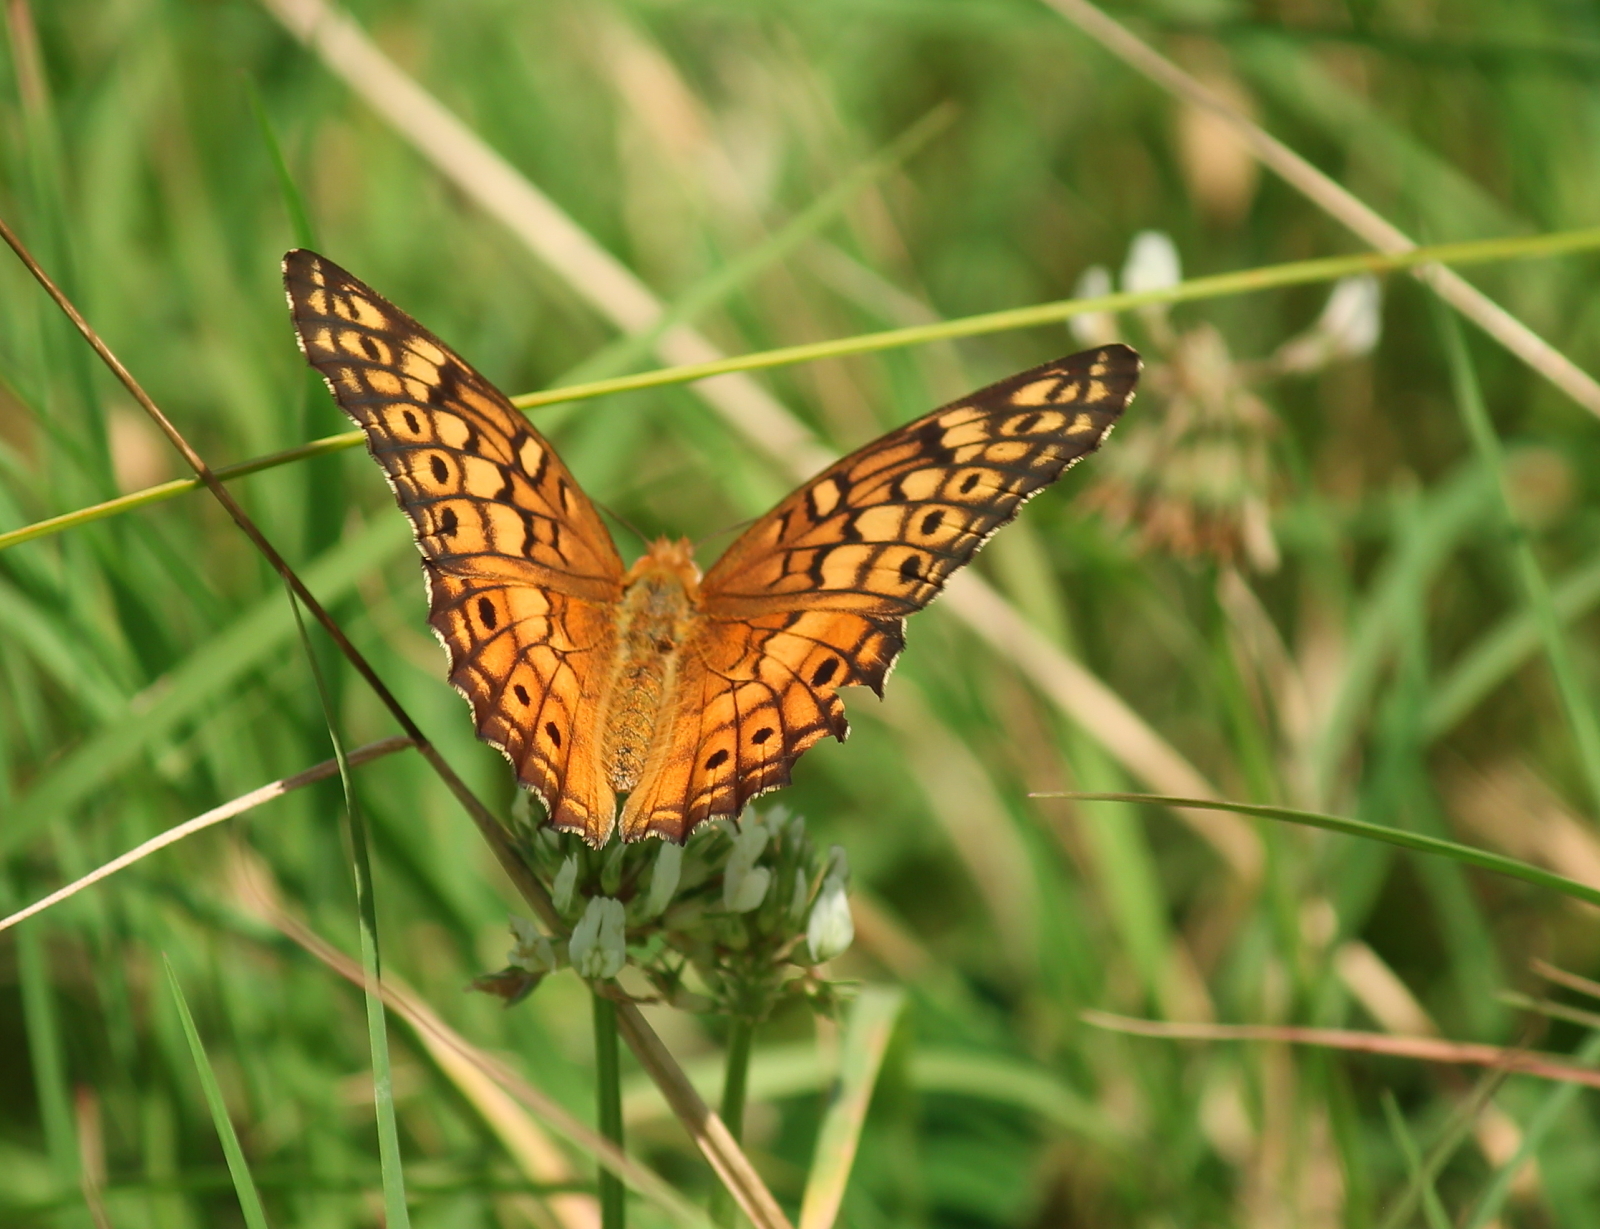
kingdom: Animalia
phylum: Arthropoda
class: Insecta
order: Lepidoptera
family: Nymphalidae
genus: Euptoieta
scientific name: Euptoieta claudia
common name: Variegated fritillary
